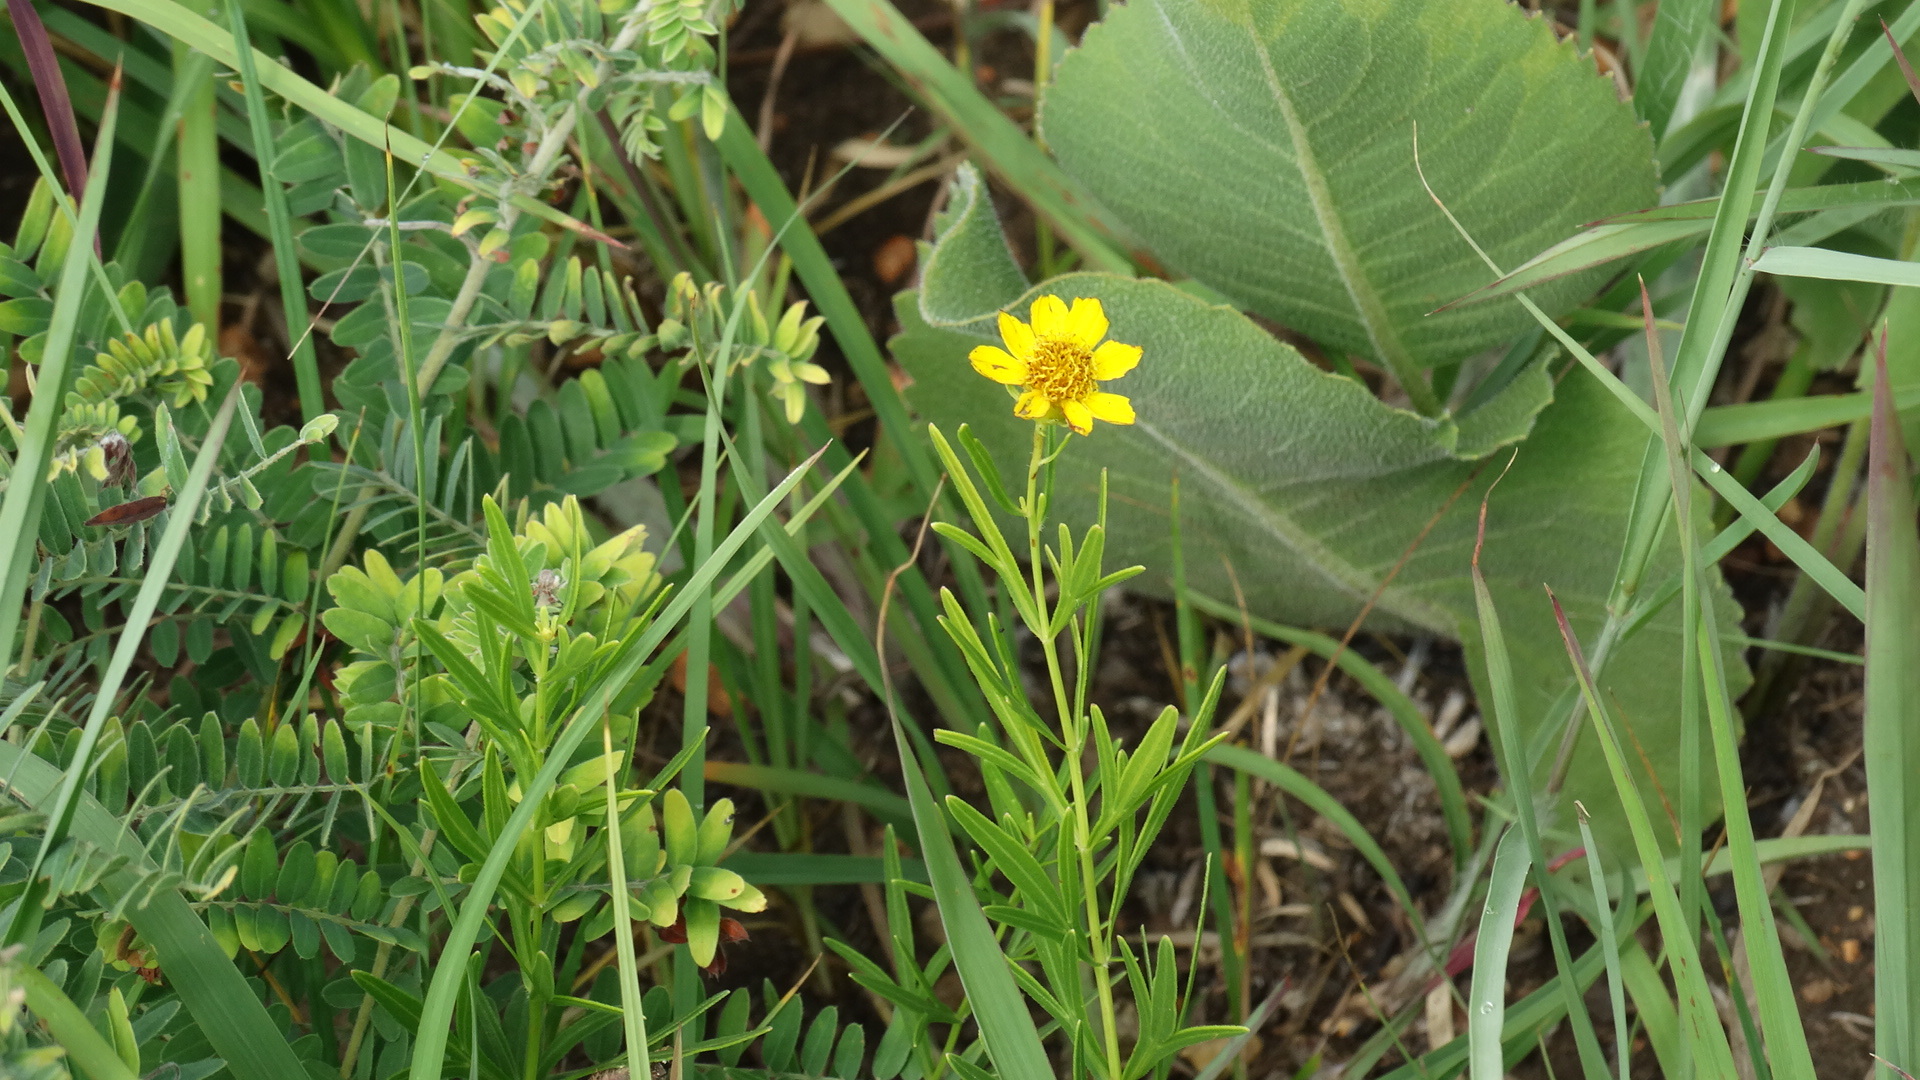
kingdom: Plantae
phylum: Tracheophyta
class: Magnoliopsida
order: Asterales
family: Asteraceae
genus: Coreopsis
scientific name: Coreopsis palmata
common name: Prairie coreopsis
